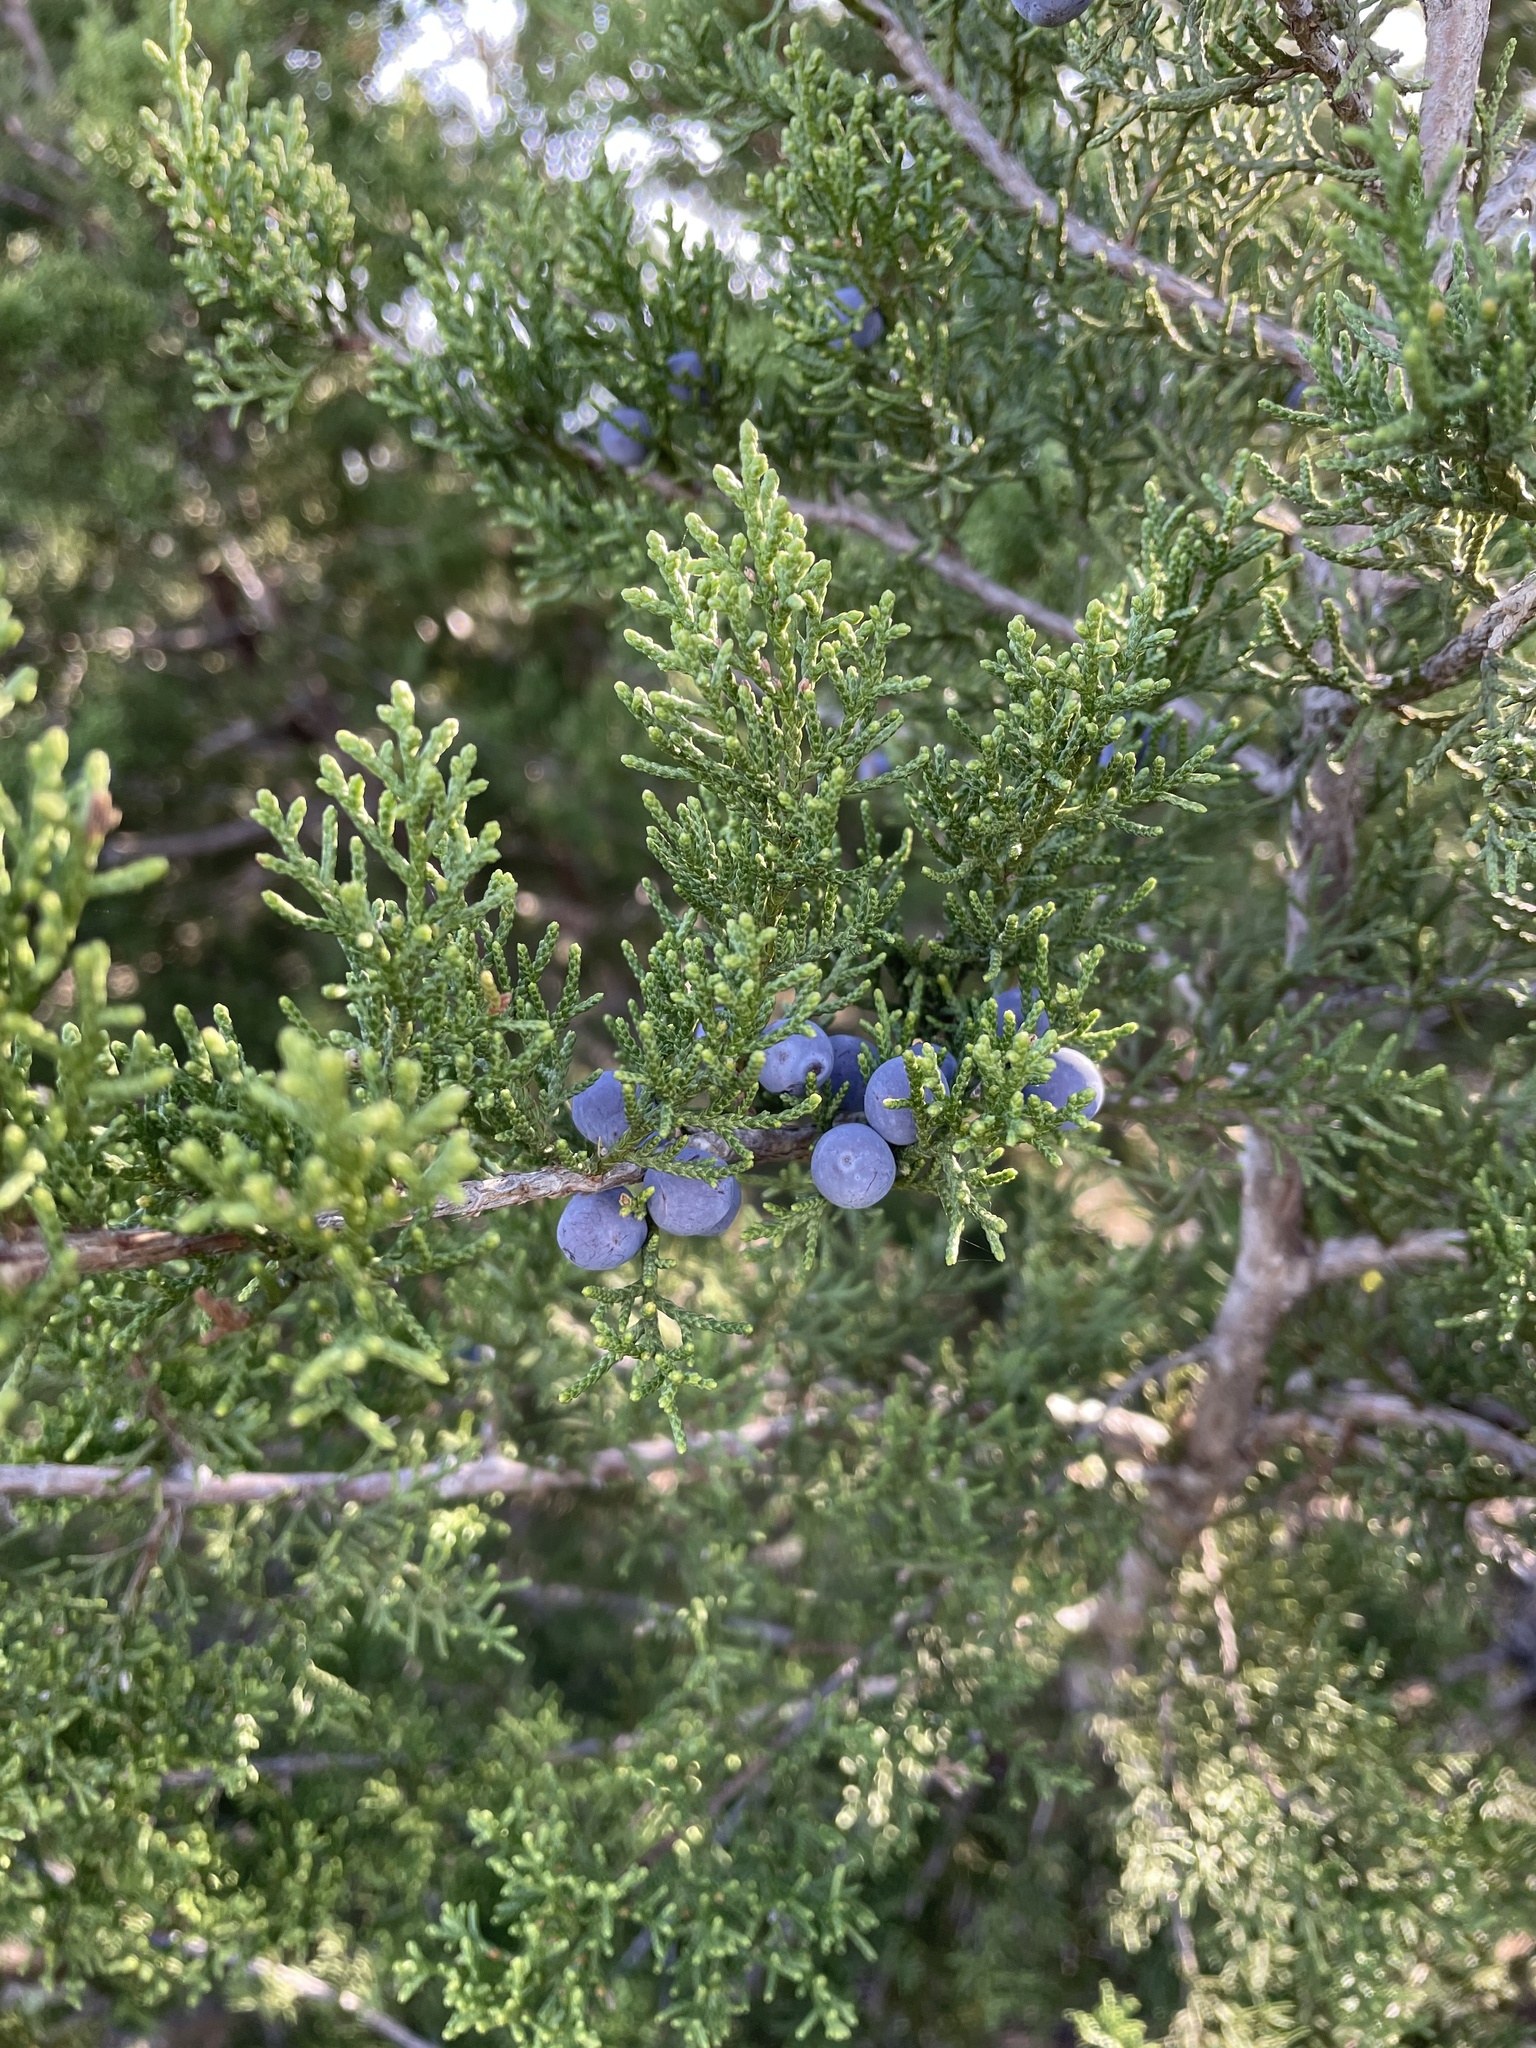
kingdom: Plantae
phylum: Tracheophyta
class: Pinopsida
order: Pinales
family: Cupressaceae
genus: Juniperus
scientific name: Juniperus ashei
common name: Mexican juniper
